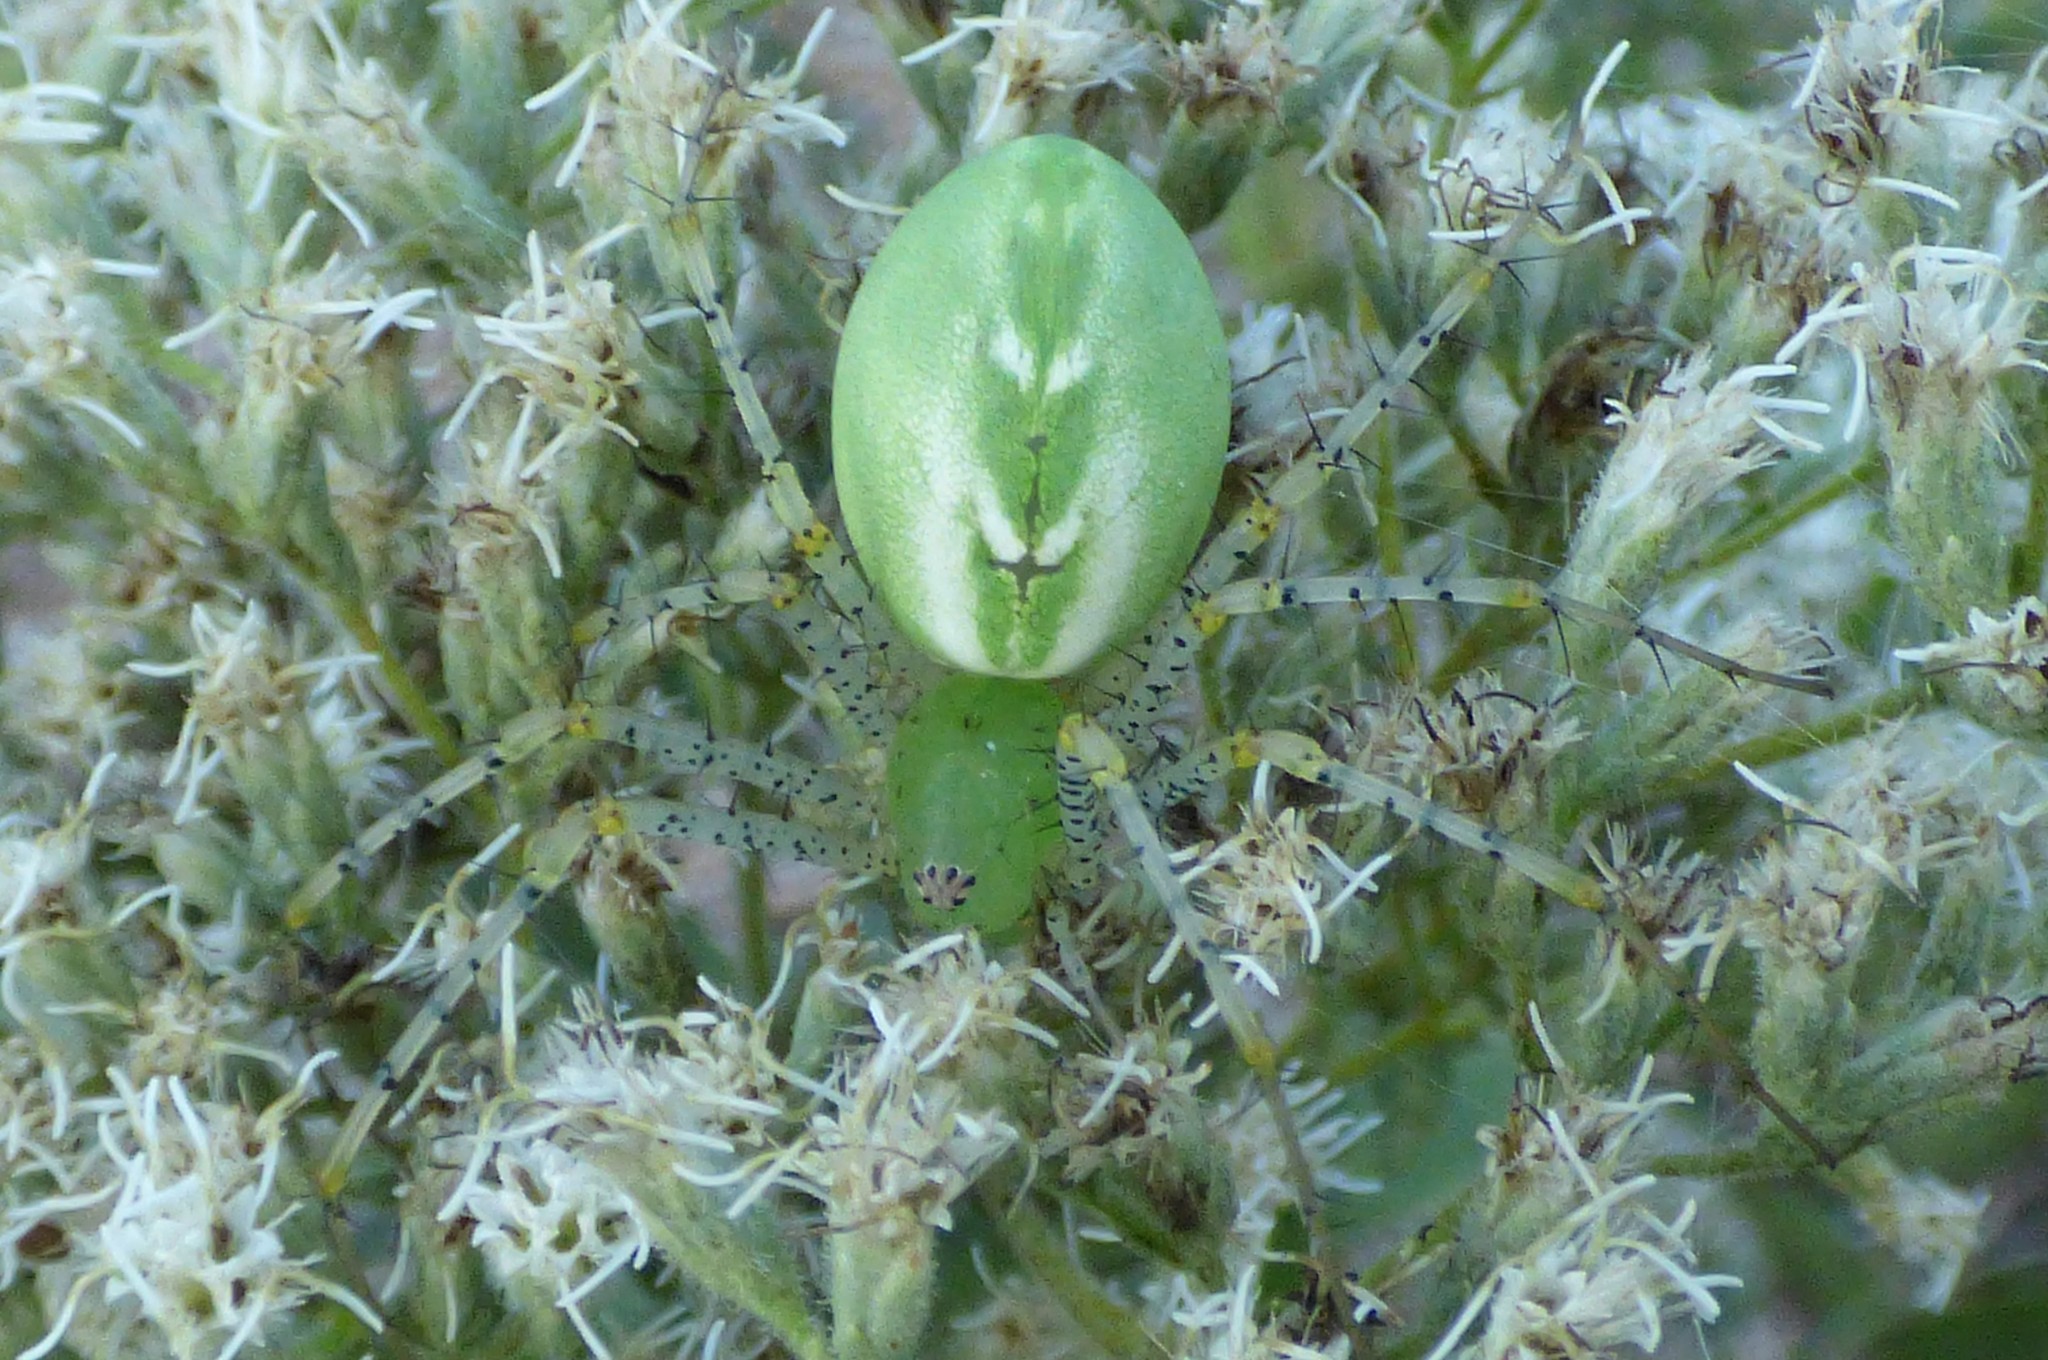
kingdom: Animalia
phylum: Arthropoda
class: Arachnida
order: Araneae
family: Oxyopidae
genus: Peucetia
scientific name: Peucetia viridans
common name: Lynx spiders
